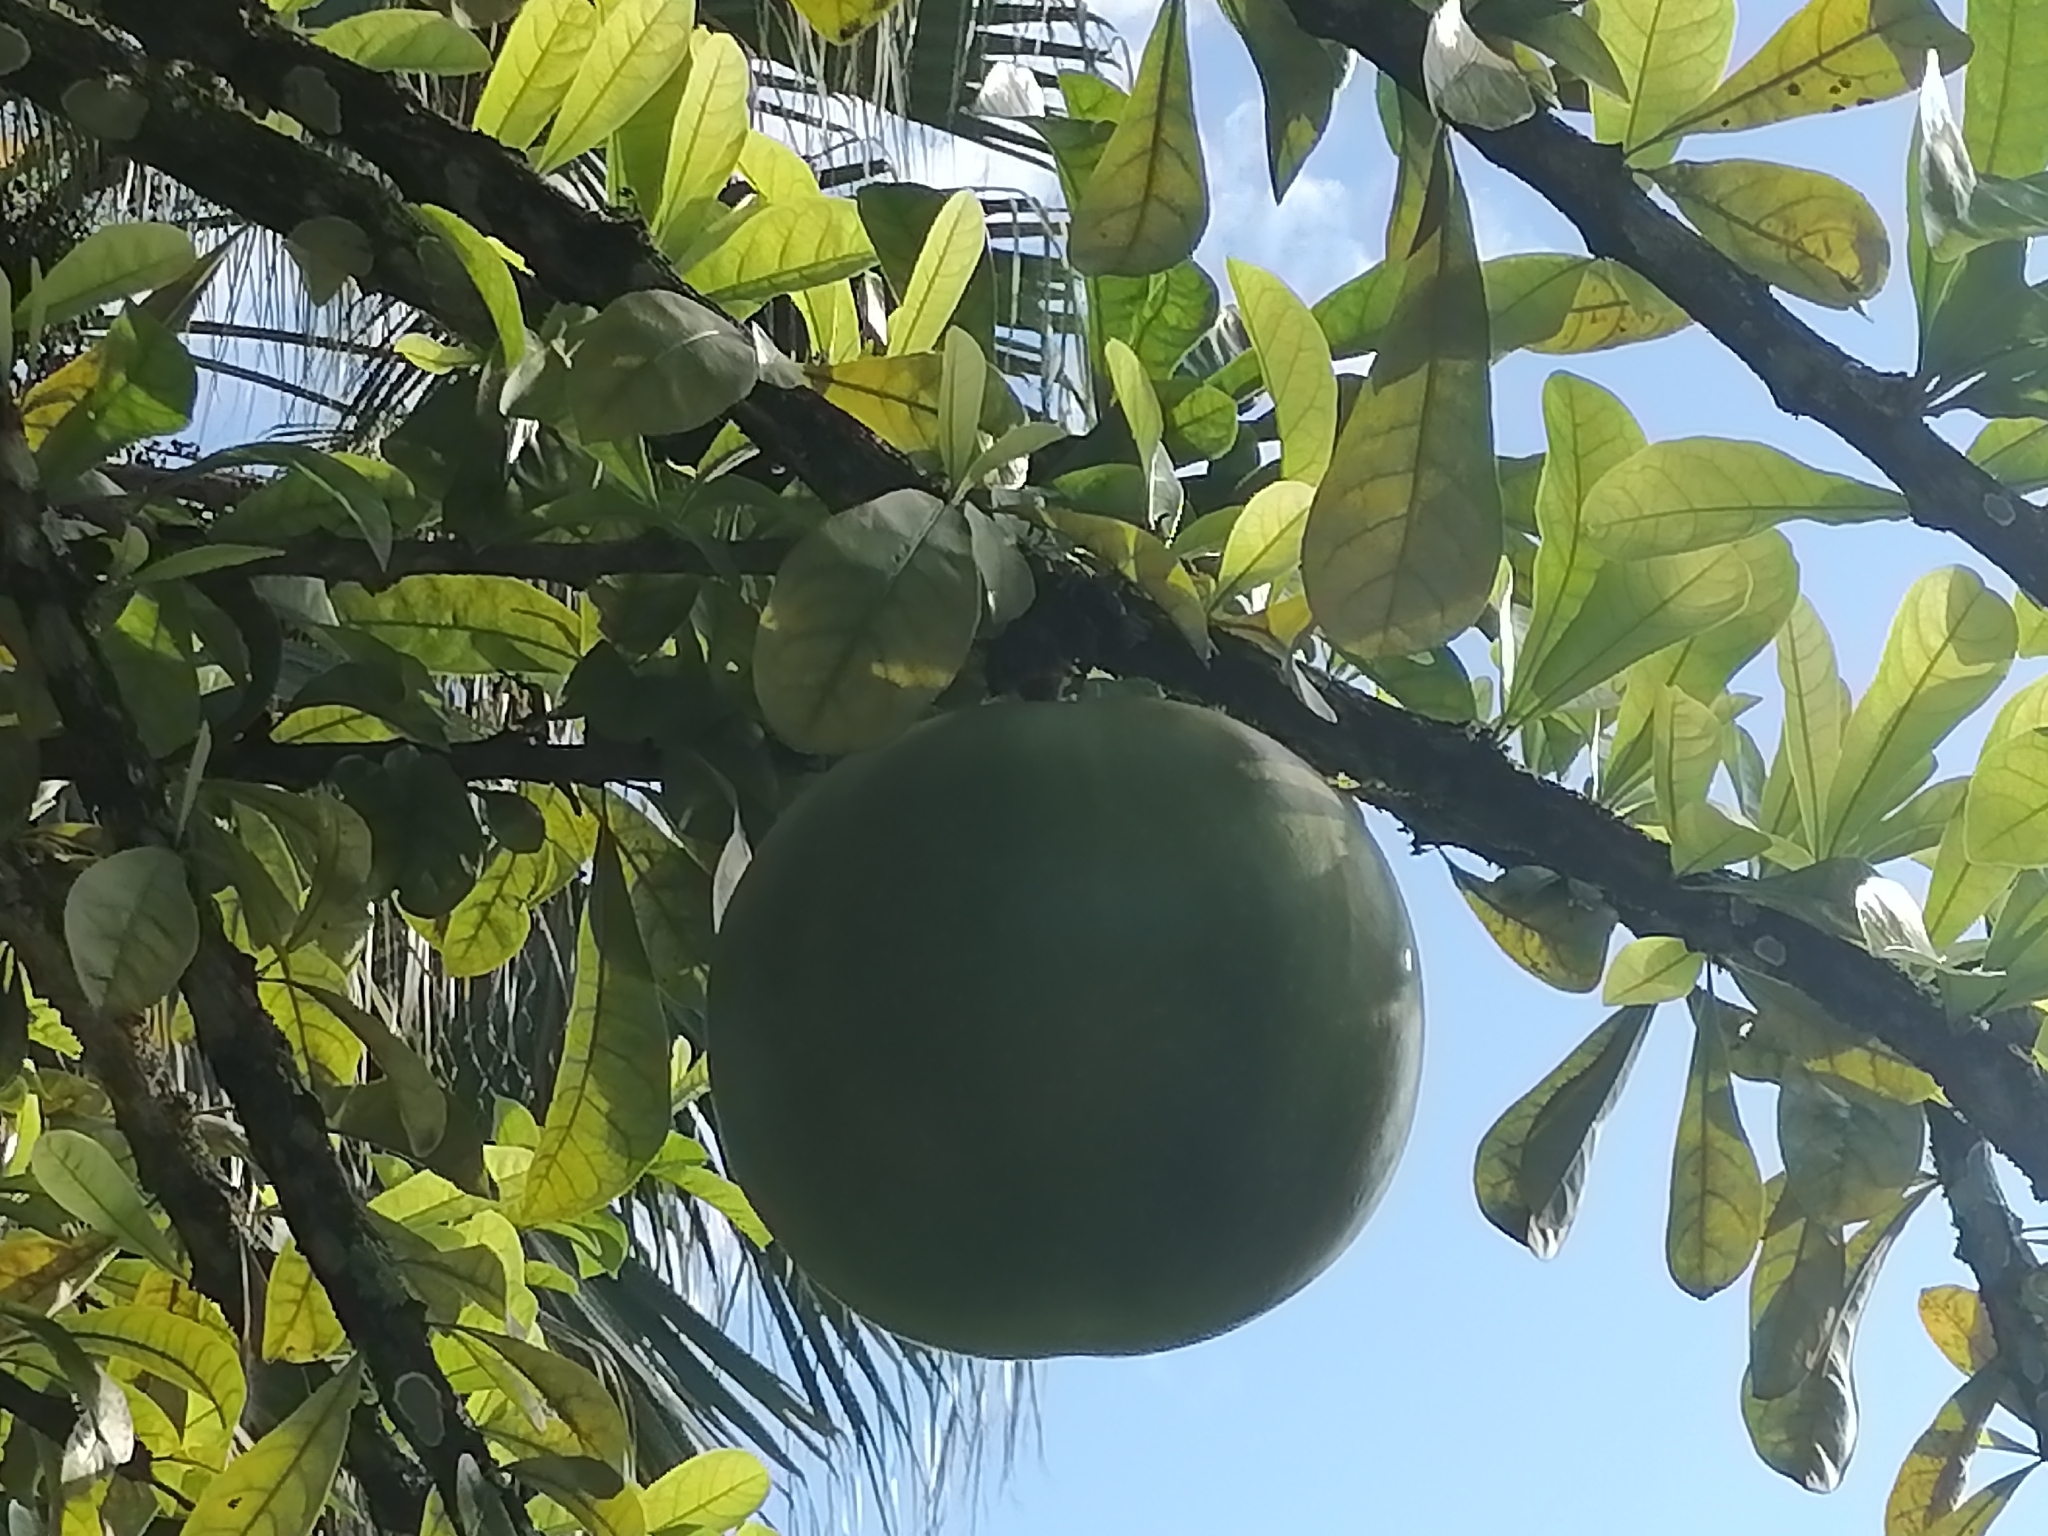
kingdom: Plantae
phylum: Tracheophyta
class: Magnoliopsida
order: Lamiales
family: Bignoniaceae
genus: Crescentia
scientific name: Crescentia cujete
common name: Calabash
